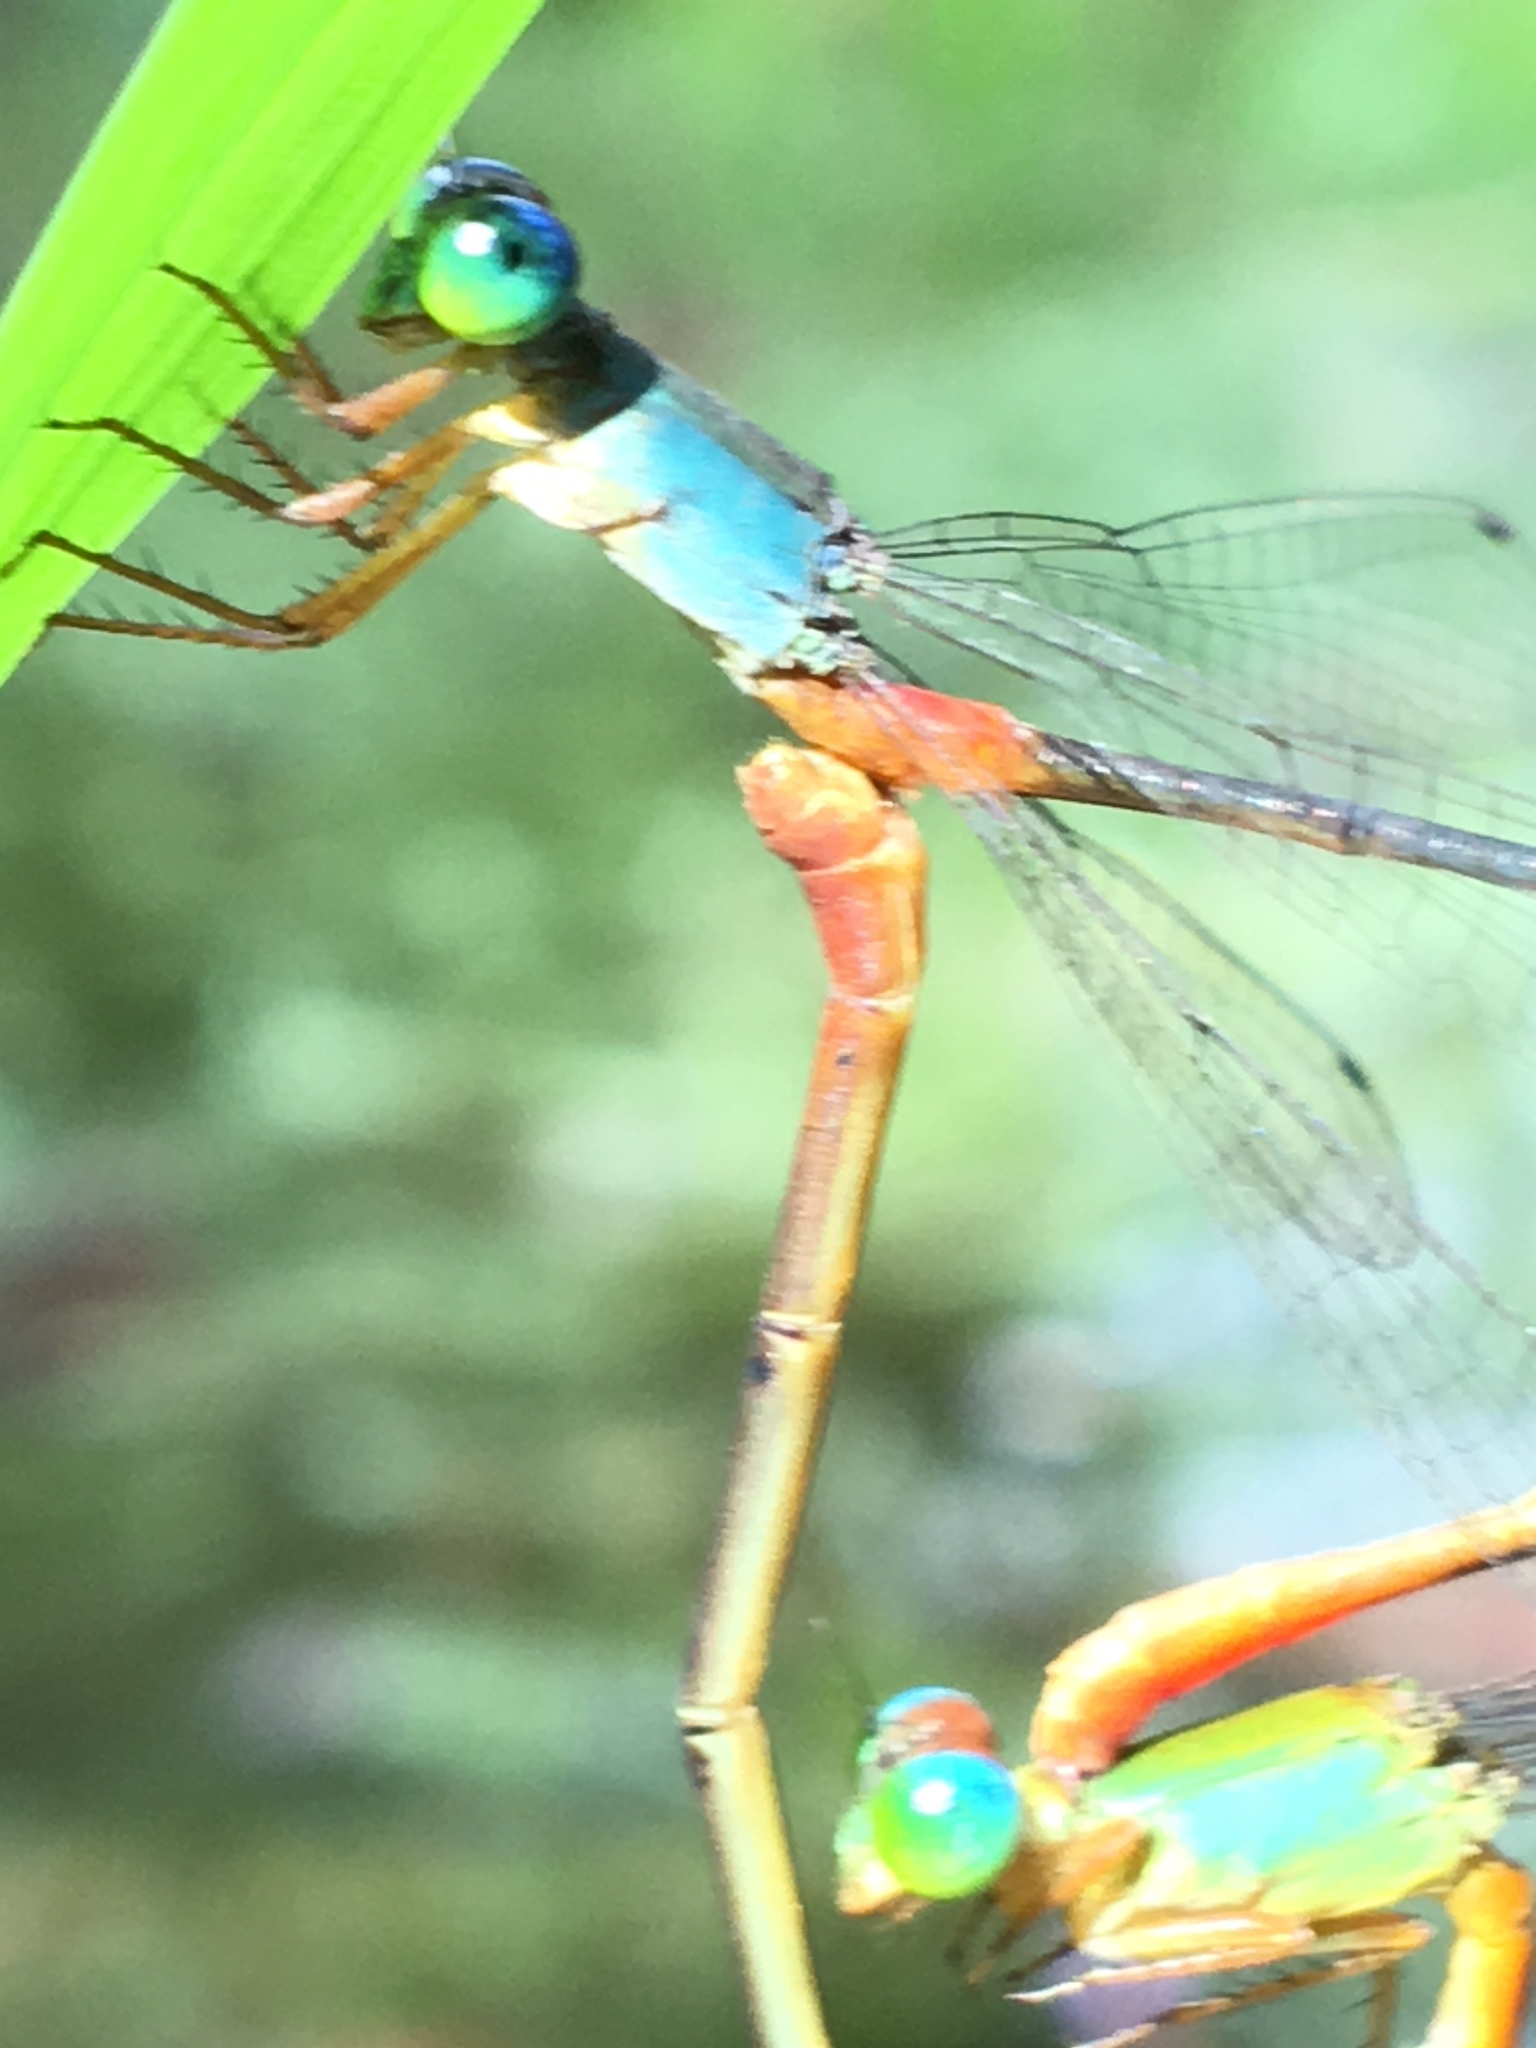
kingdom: Animalia
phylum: Arthropoda
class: Insecta
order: Odonata
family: Coenagrionidae
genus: Ceriagrion
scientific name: Ceriagrion cerinorubellum
